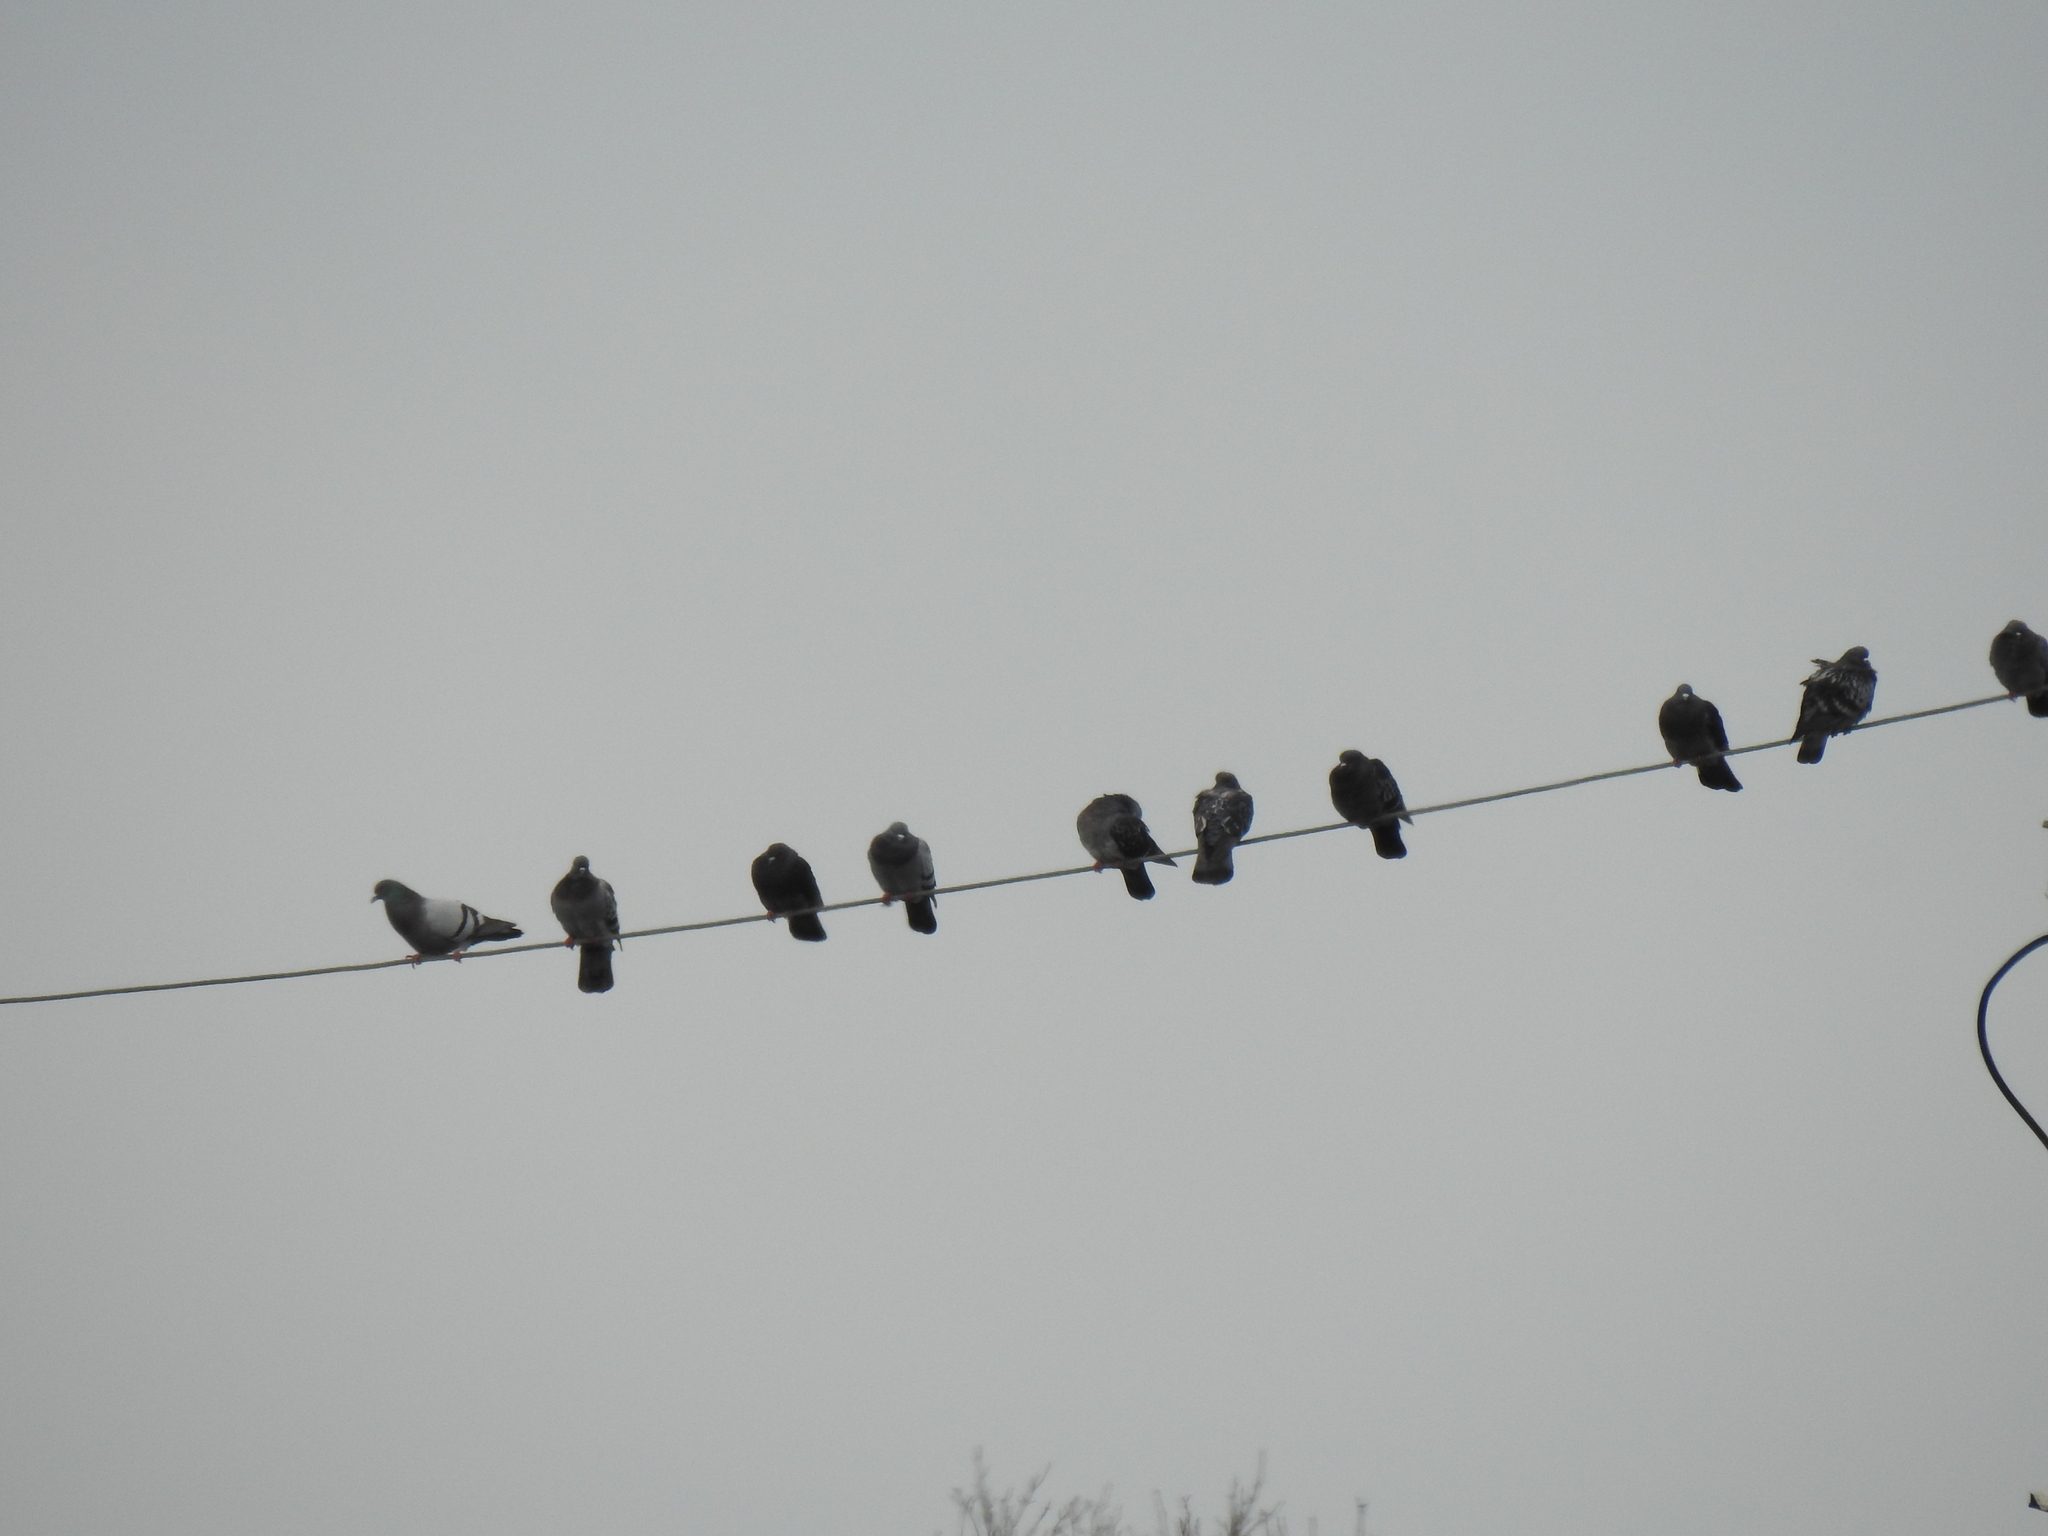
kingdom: Animalia
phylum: Chordata
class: Aves
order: Columbiformes
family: Columbidae
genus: Columba
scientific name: Columba livia
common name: Rock pigeon
